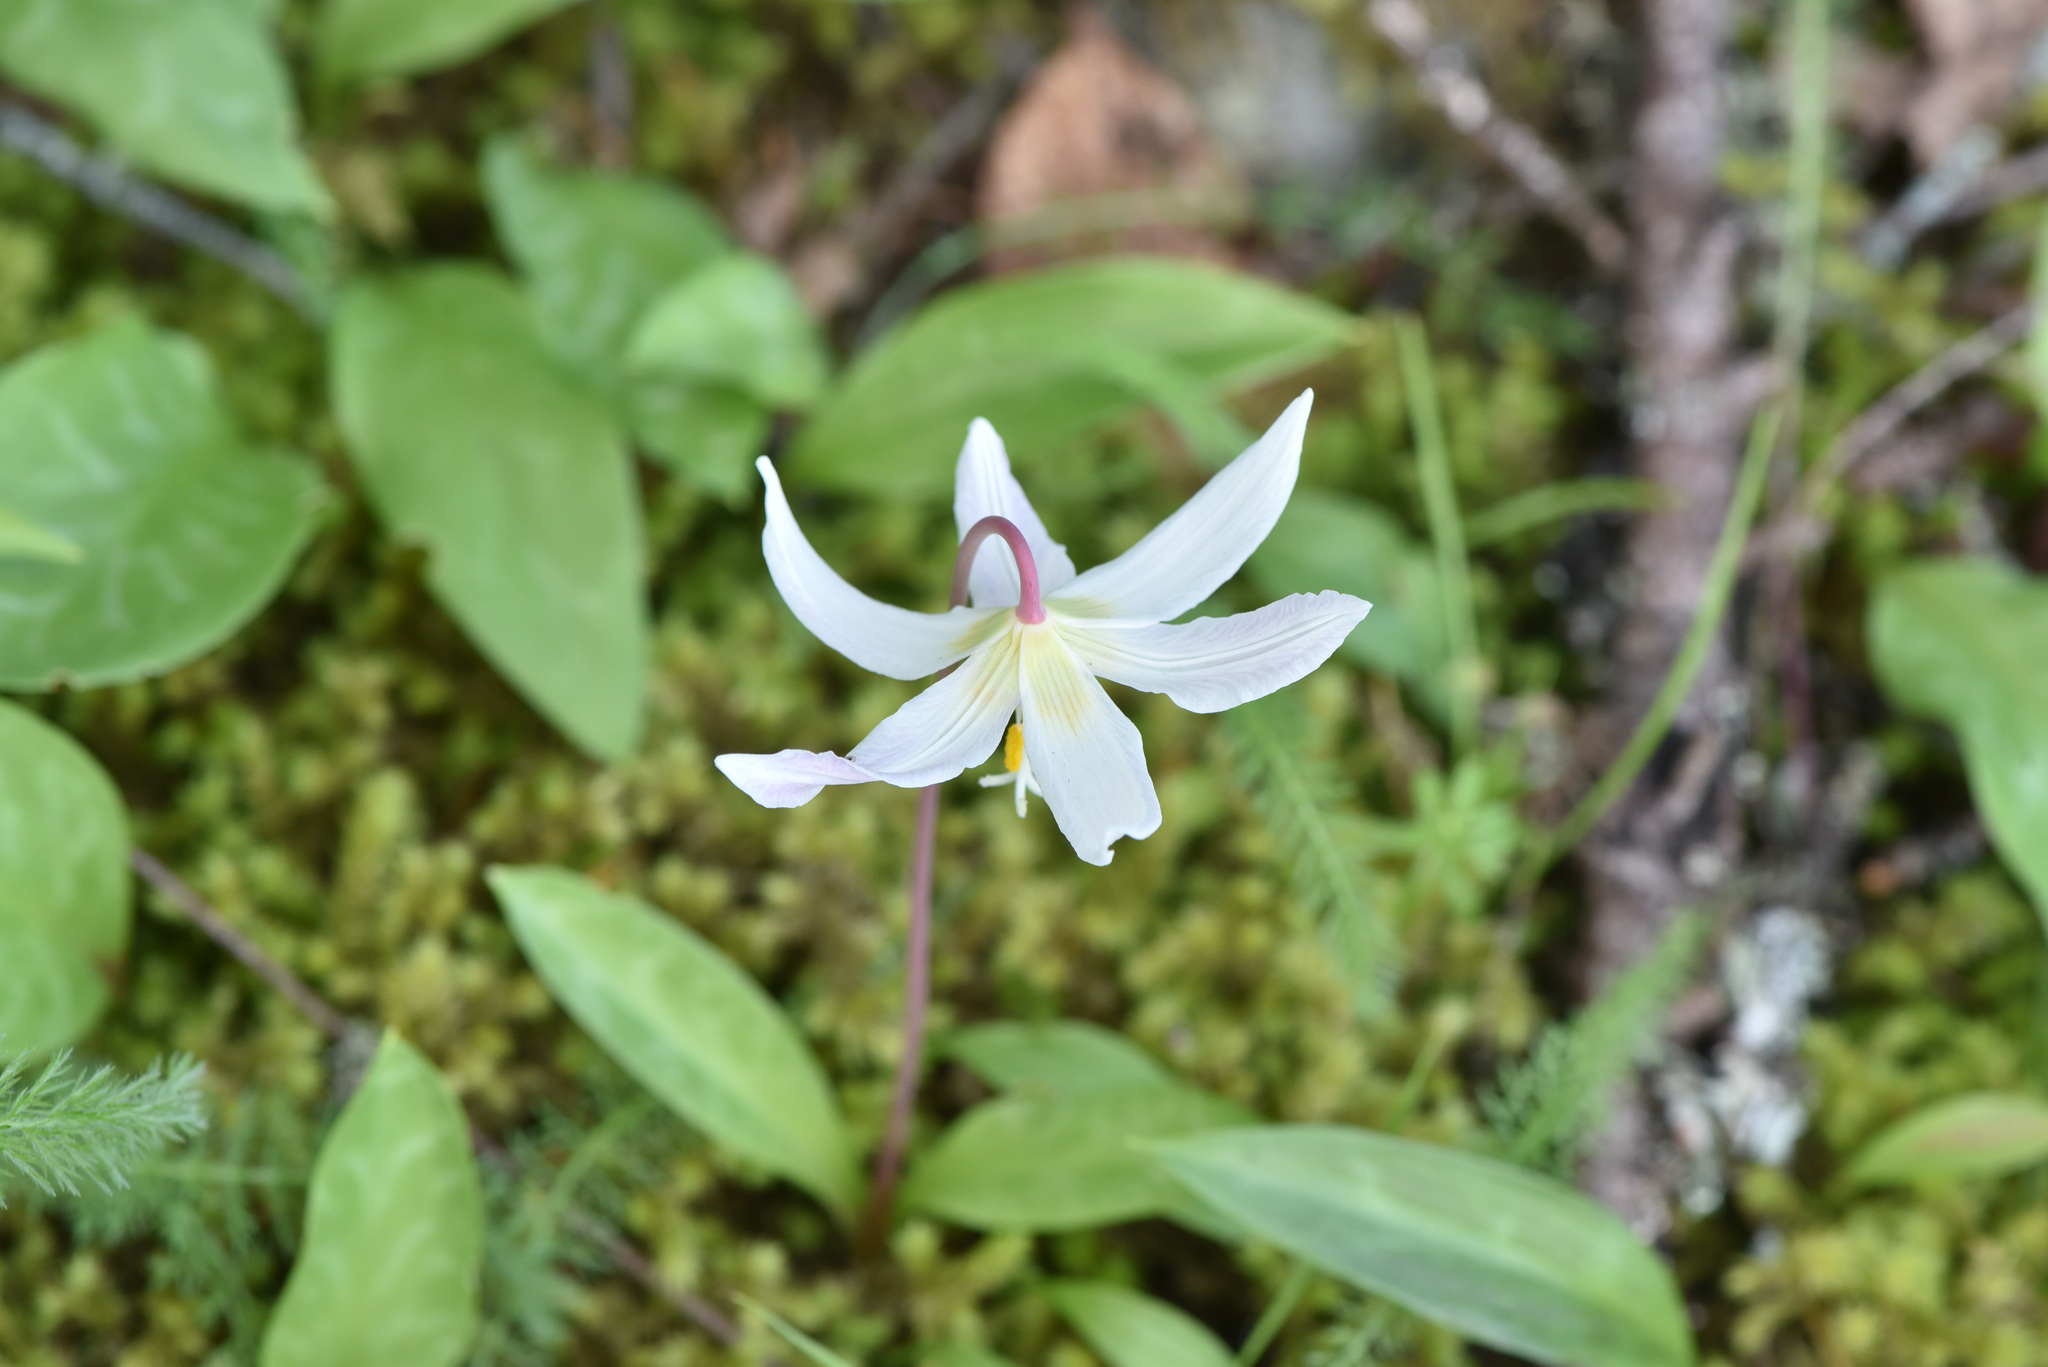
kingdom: Plantae
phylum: Tracheophyta
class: Liliopsida
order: Liliales
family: Liliaceae
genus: Erythronium
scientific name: Erythronium oregonum
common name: Giant adder's-tongue
